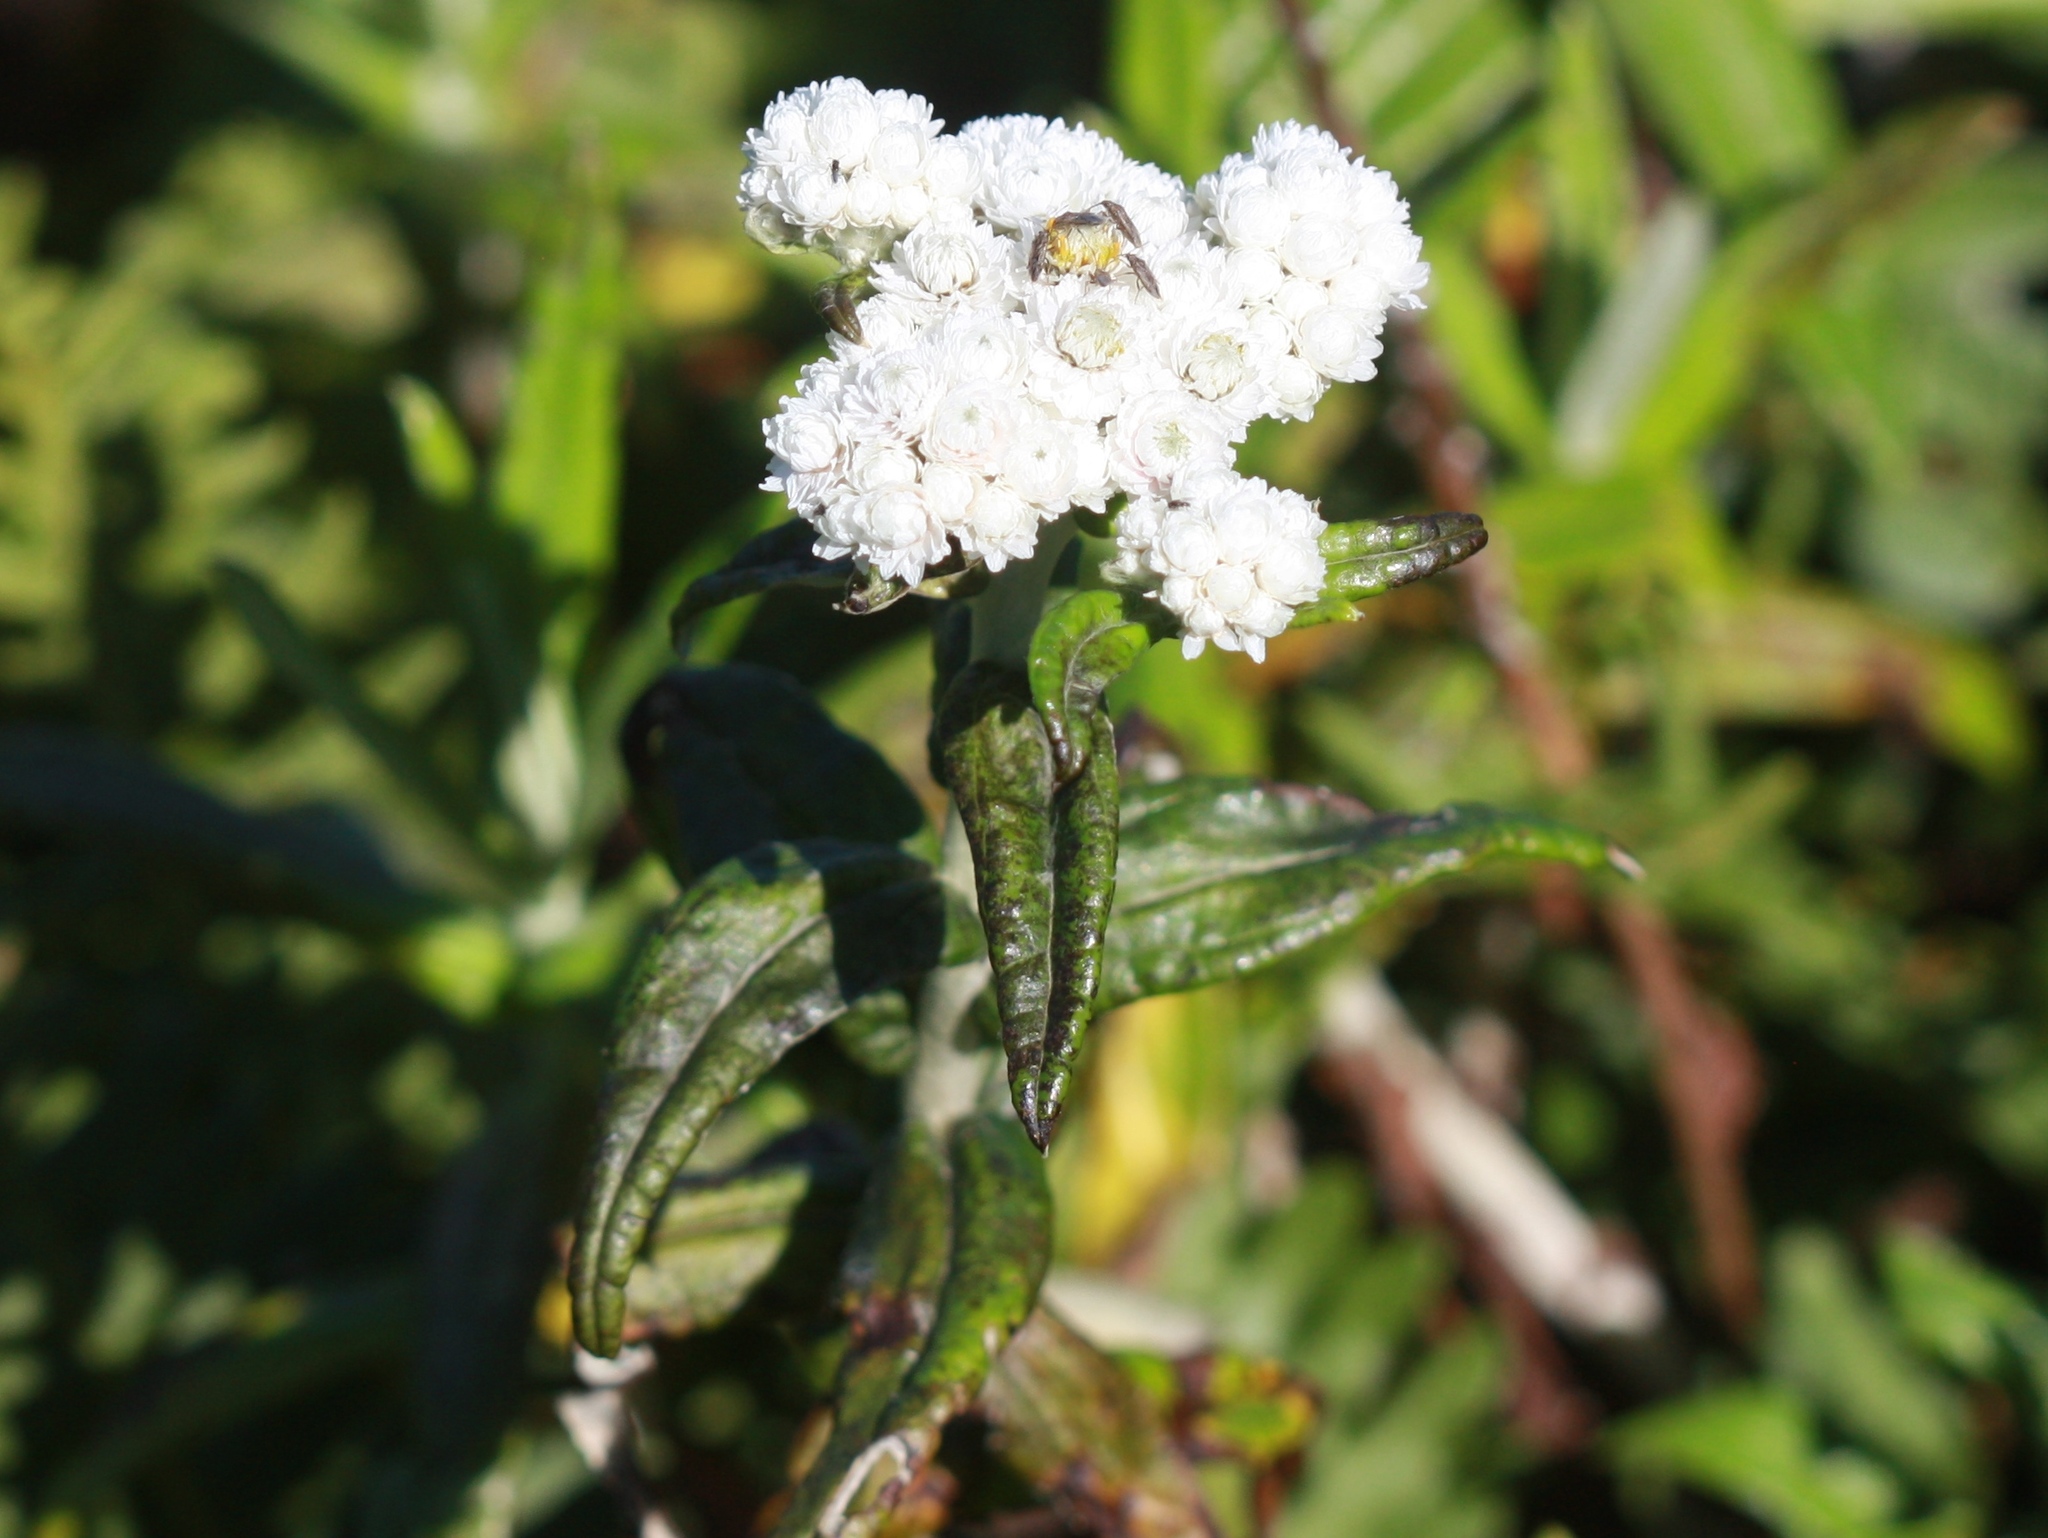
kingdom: Plantae
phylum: Tracheophyta
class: Magnoliopsida
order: Asterales
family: Asteraceae
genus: Anaphalis
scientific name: Anaphalis margaritacea
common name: Pearly everlasting
